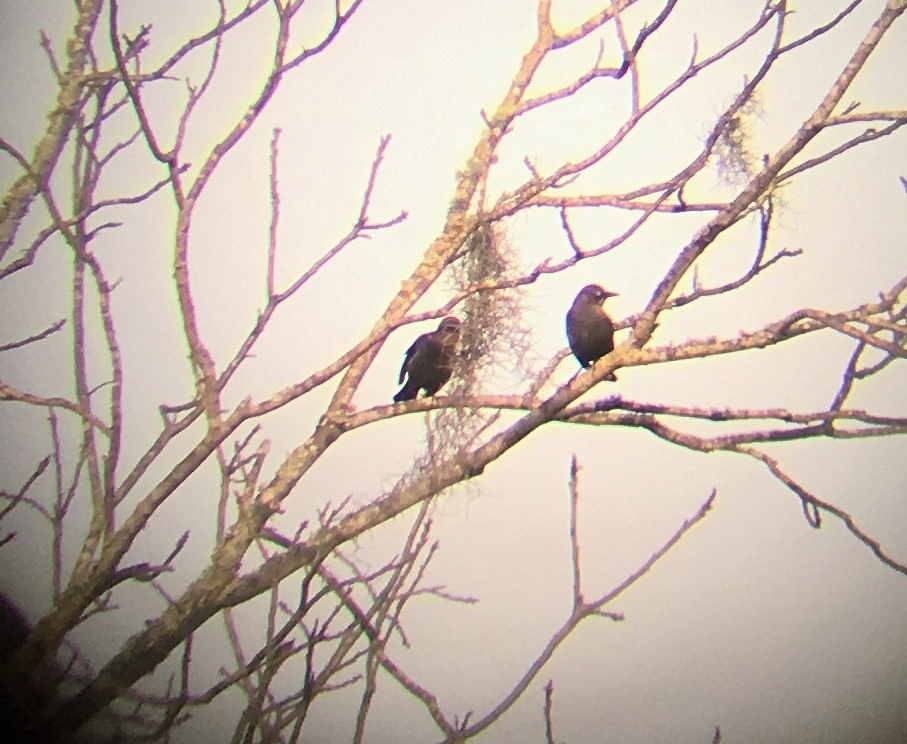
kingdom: Animalia
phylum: Chordata
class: Aves
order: Passeriformes
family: Icteridae
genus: Euphagus
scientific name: Euphagus carolinus
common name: Rusty blackbird
